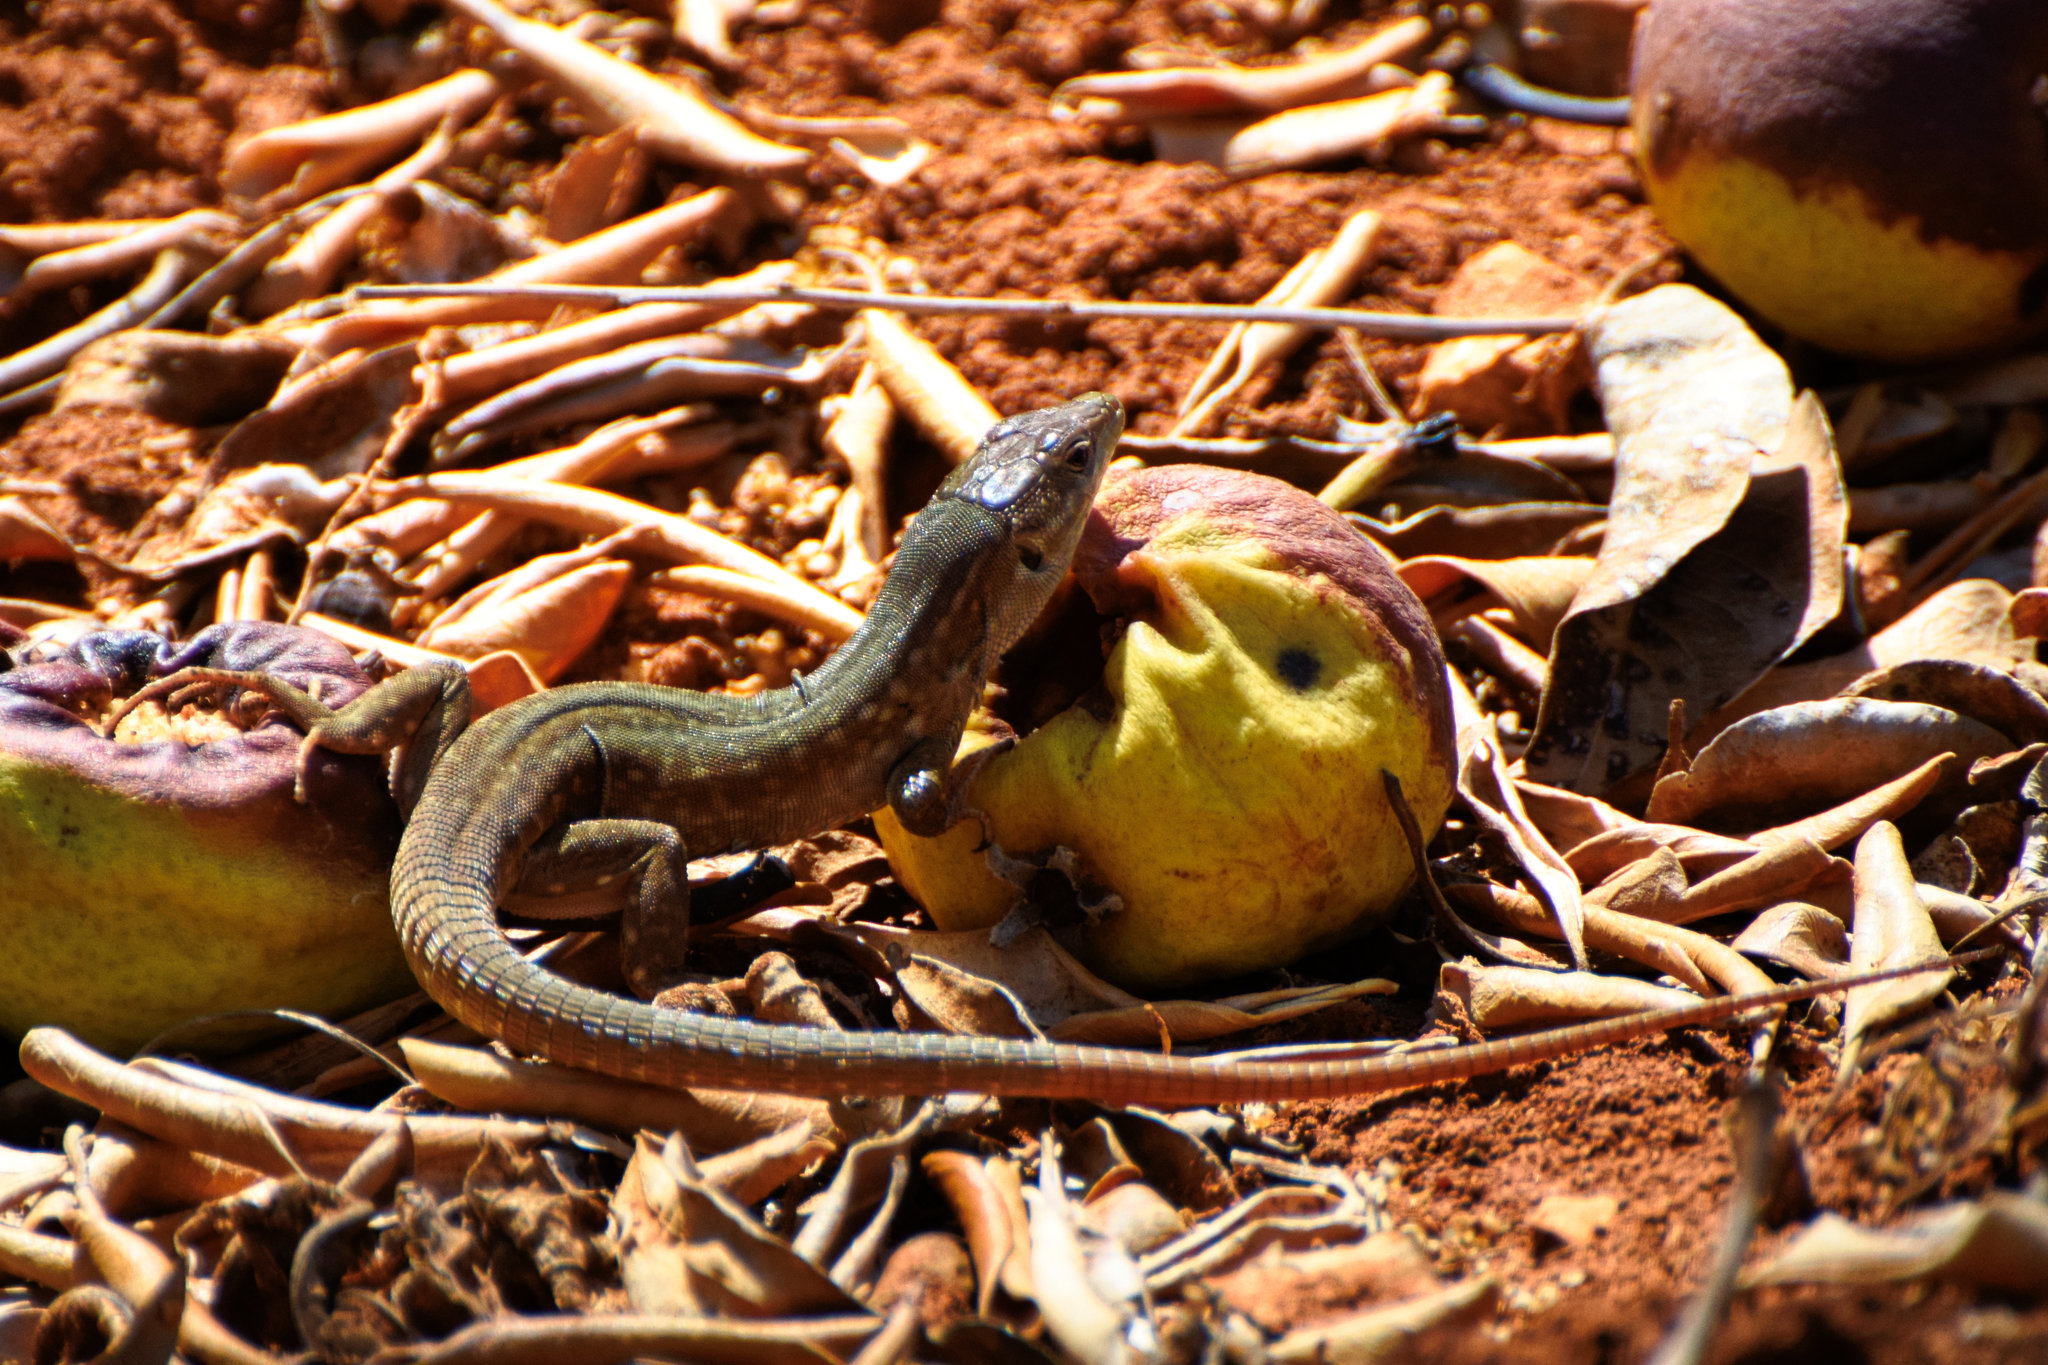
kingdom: Animalia
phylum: Chordata
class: Squamata
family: Lacertidae
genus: Podarcis
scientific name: Podarcis siculus
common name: Italian wall lizard
